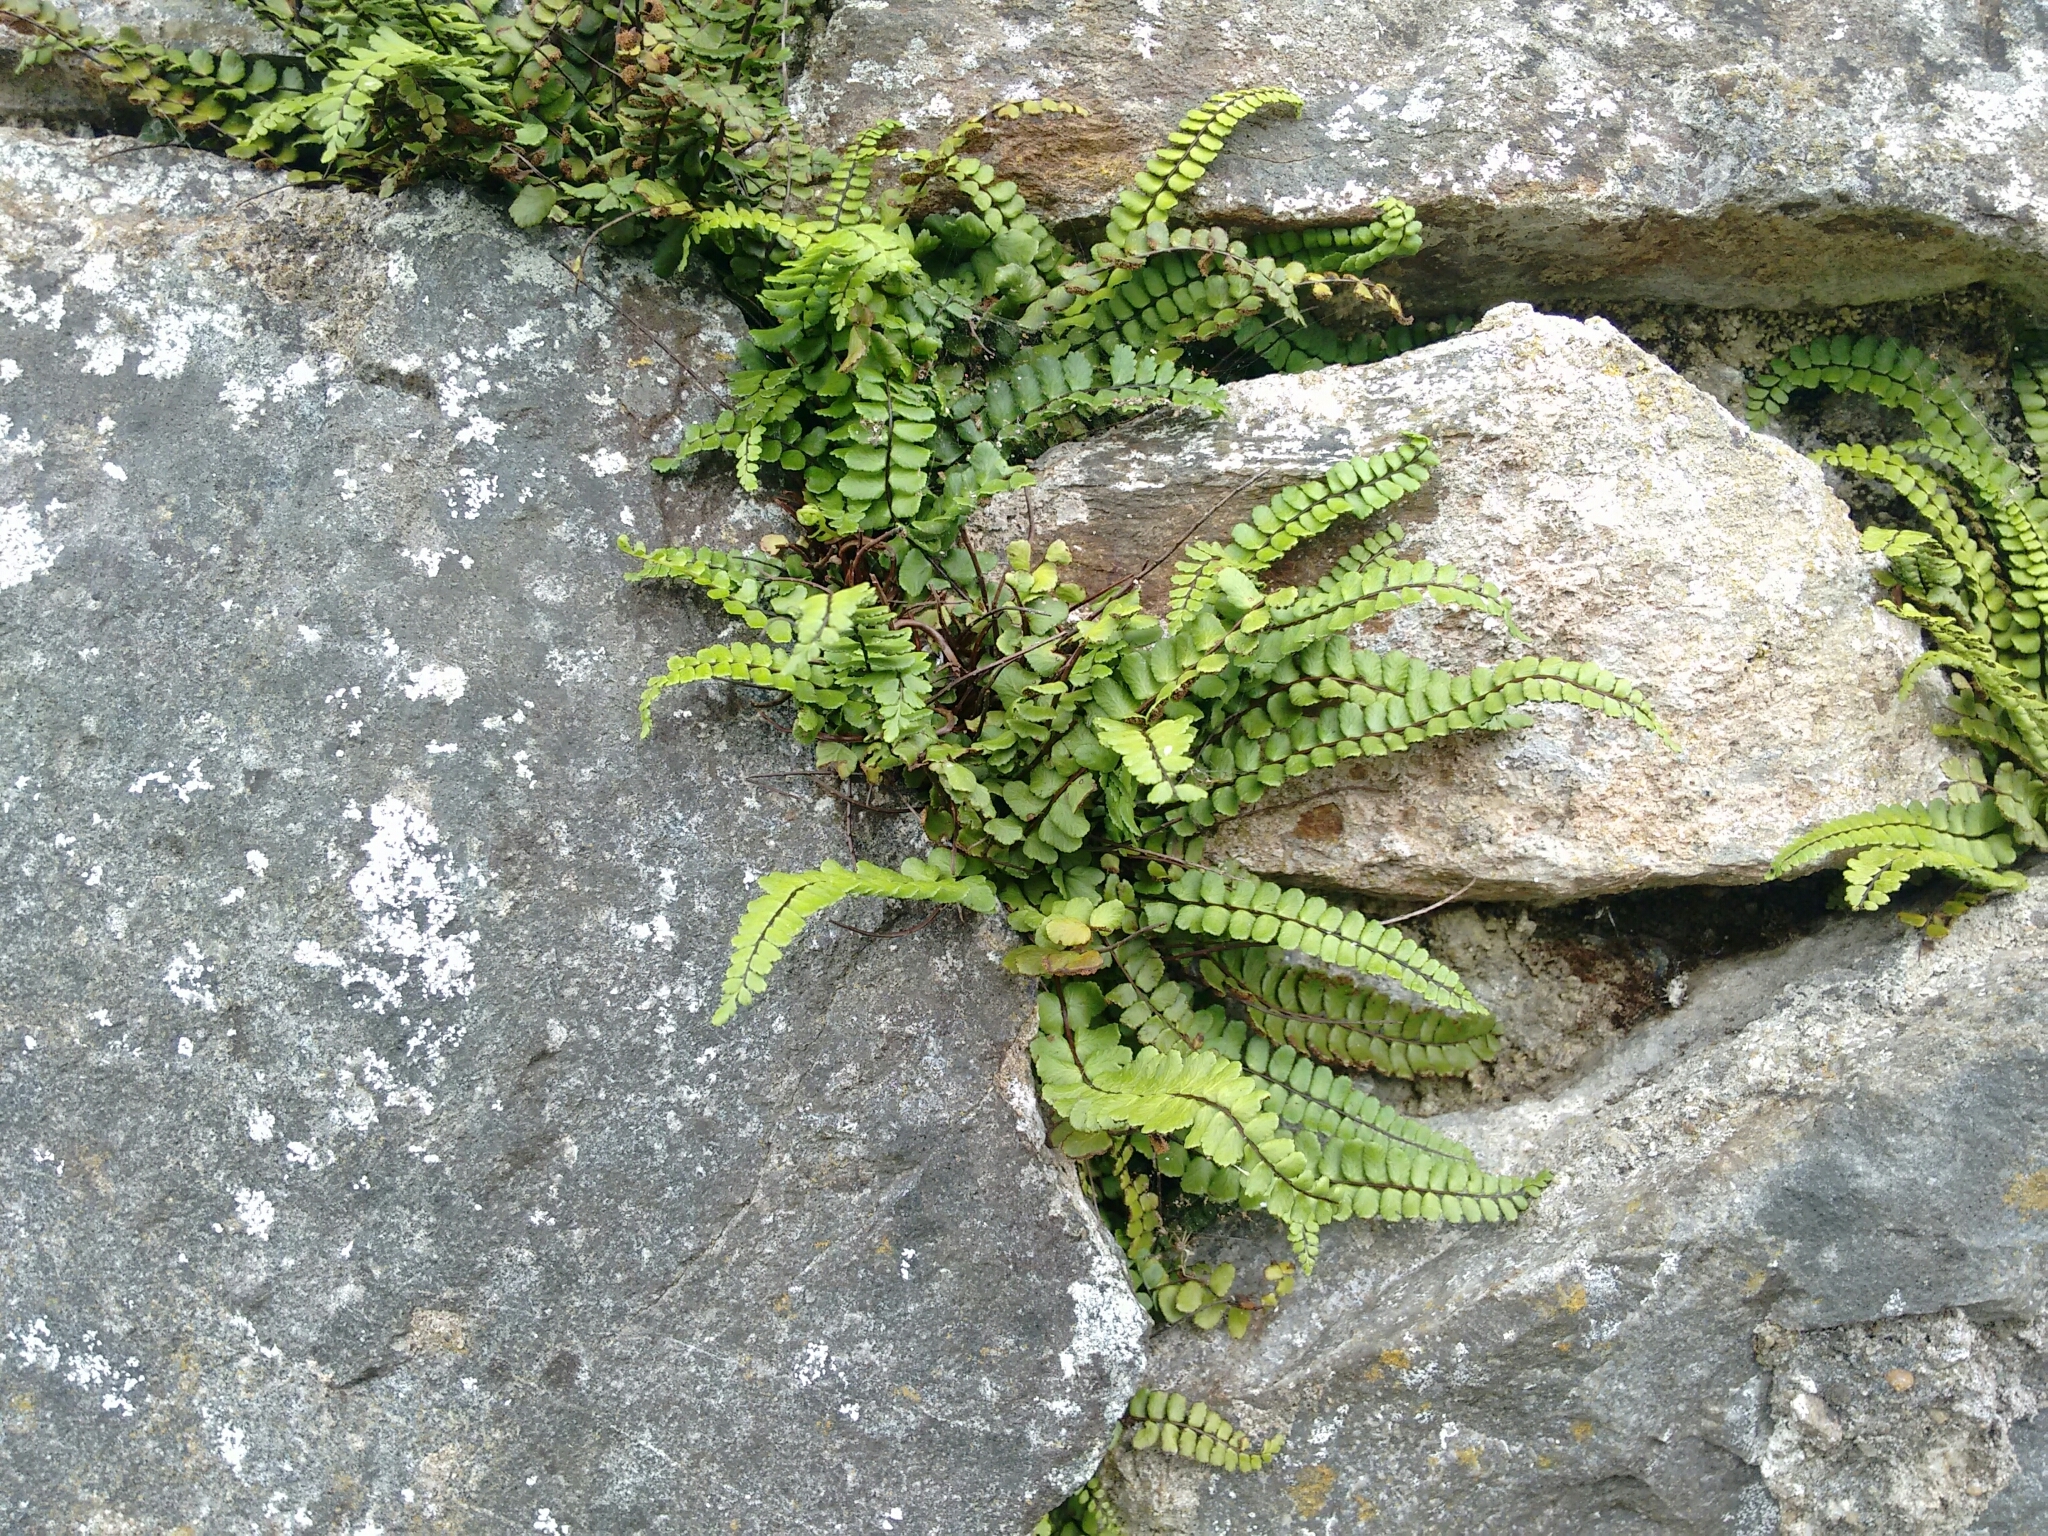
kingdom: Plantae
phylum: Tracheophyta
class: Polypodiopsida
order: Polypodiales
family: Aspleniaceae
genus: Asplenium
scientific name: Asplenium trichomanes
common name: Maidenhair spleenwort
